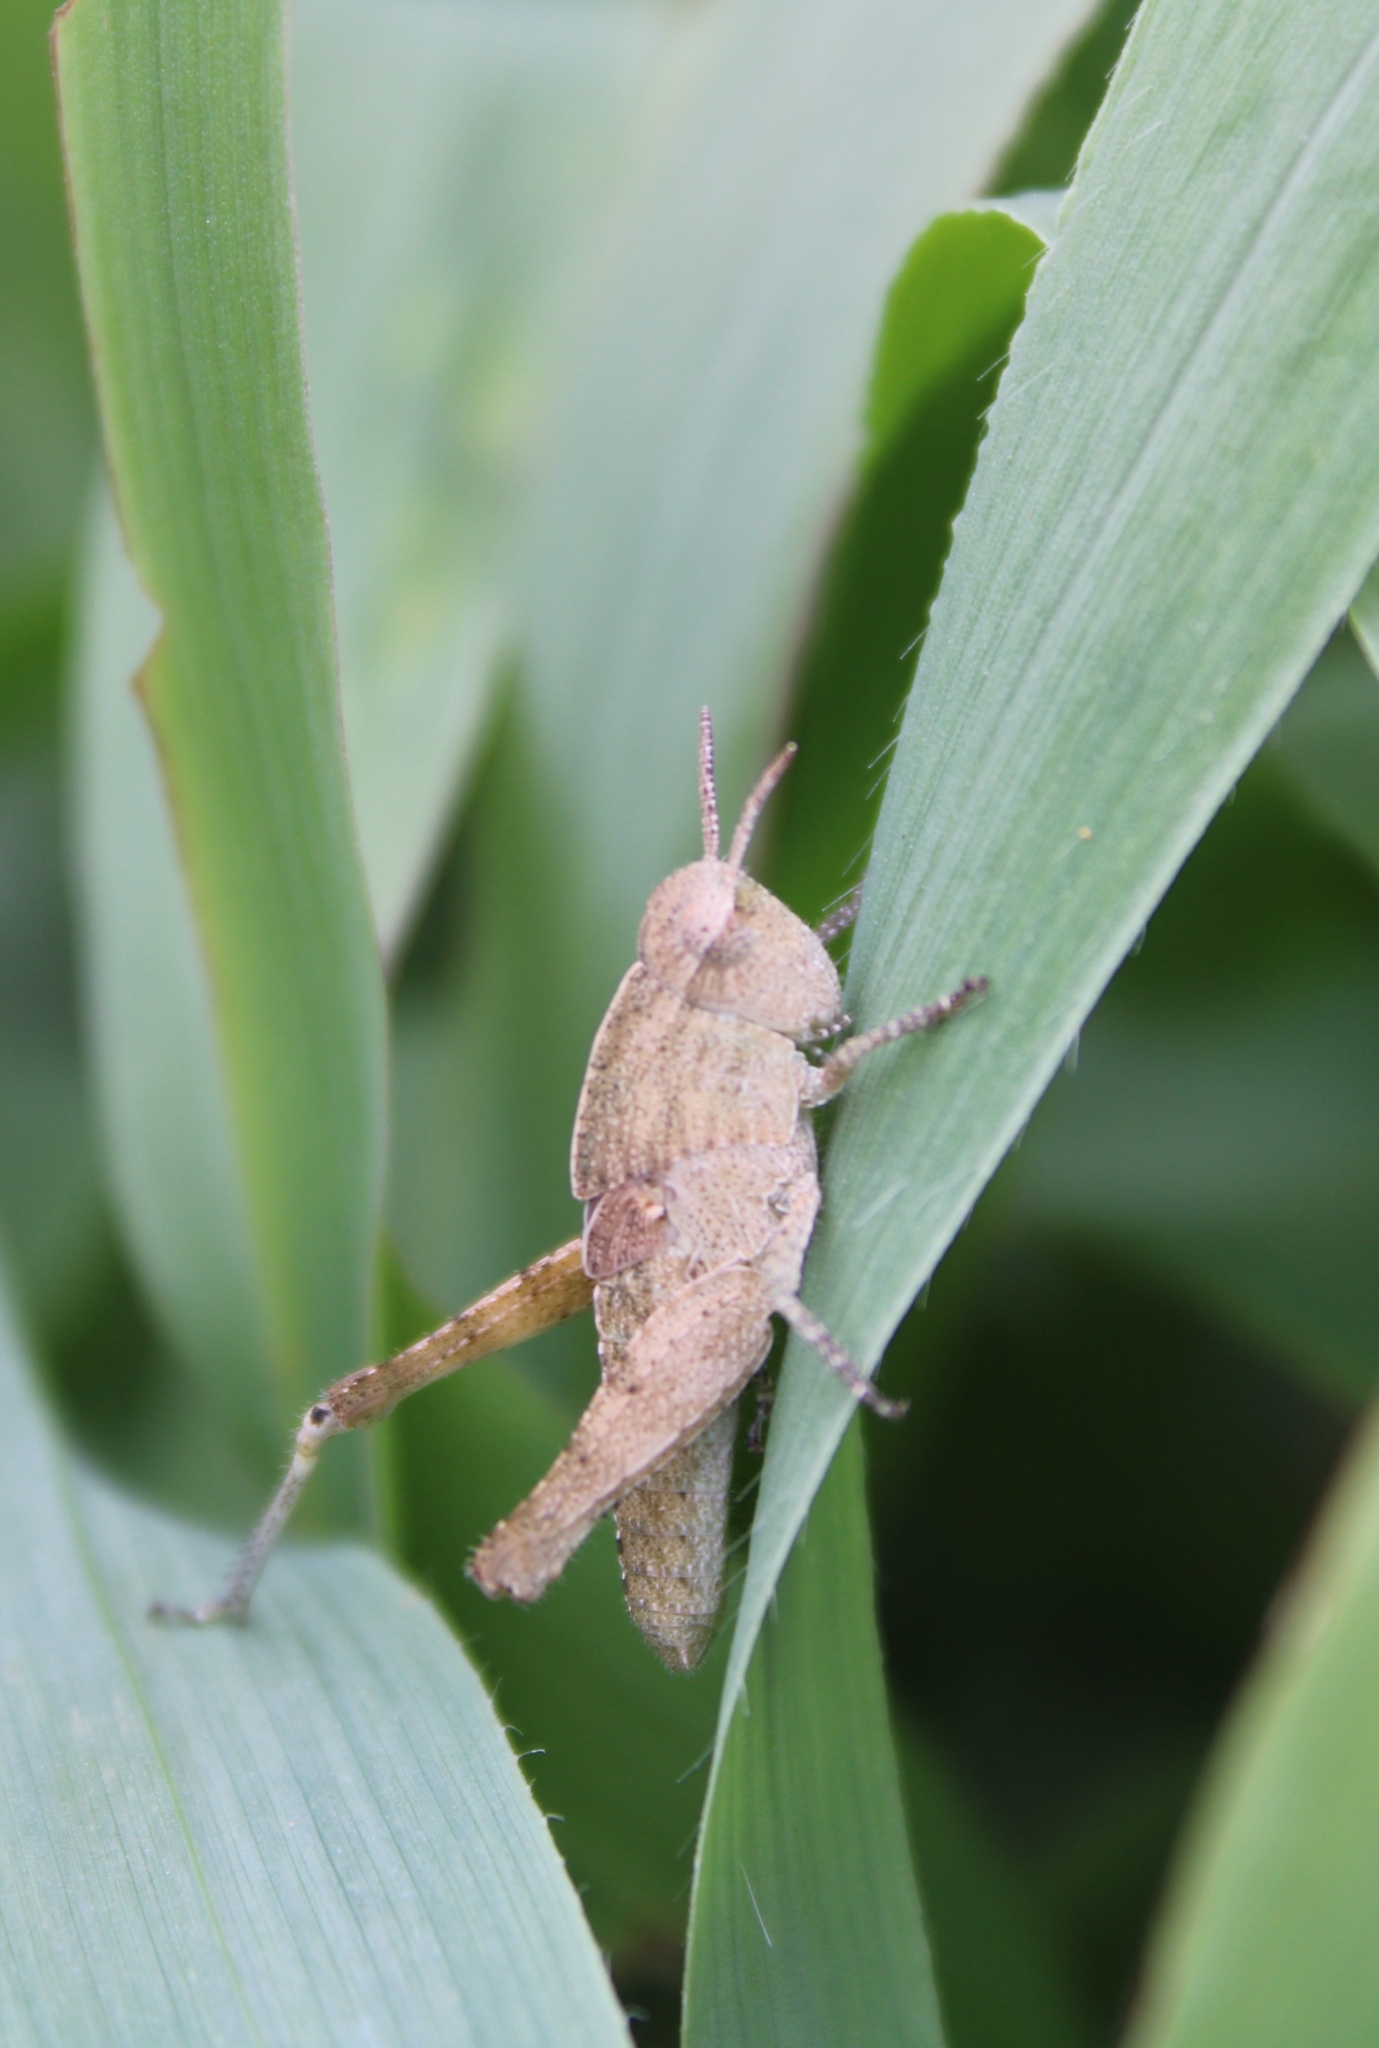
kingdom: Animalia
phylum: Arthropoda
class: Insecta
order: Orthoptera
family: Acrididae
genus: Chortophaga
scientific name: Chortophaga viridifasciata
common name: Green-striped grasshopper
